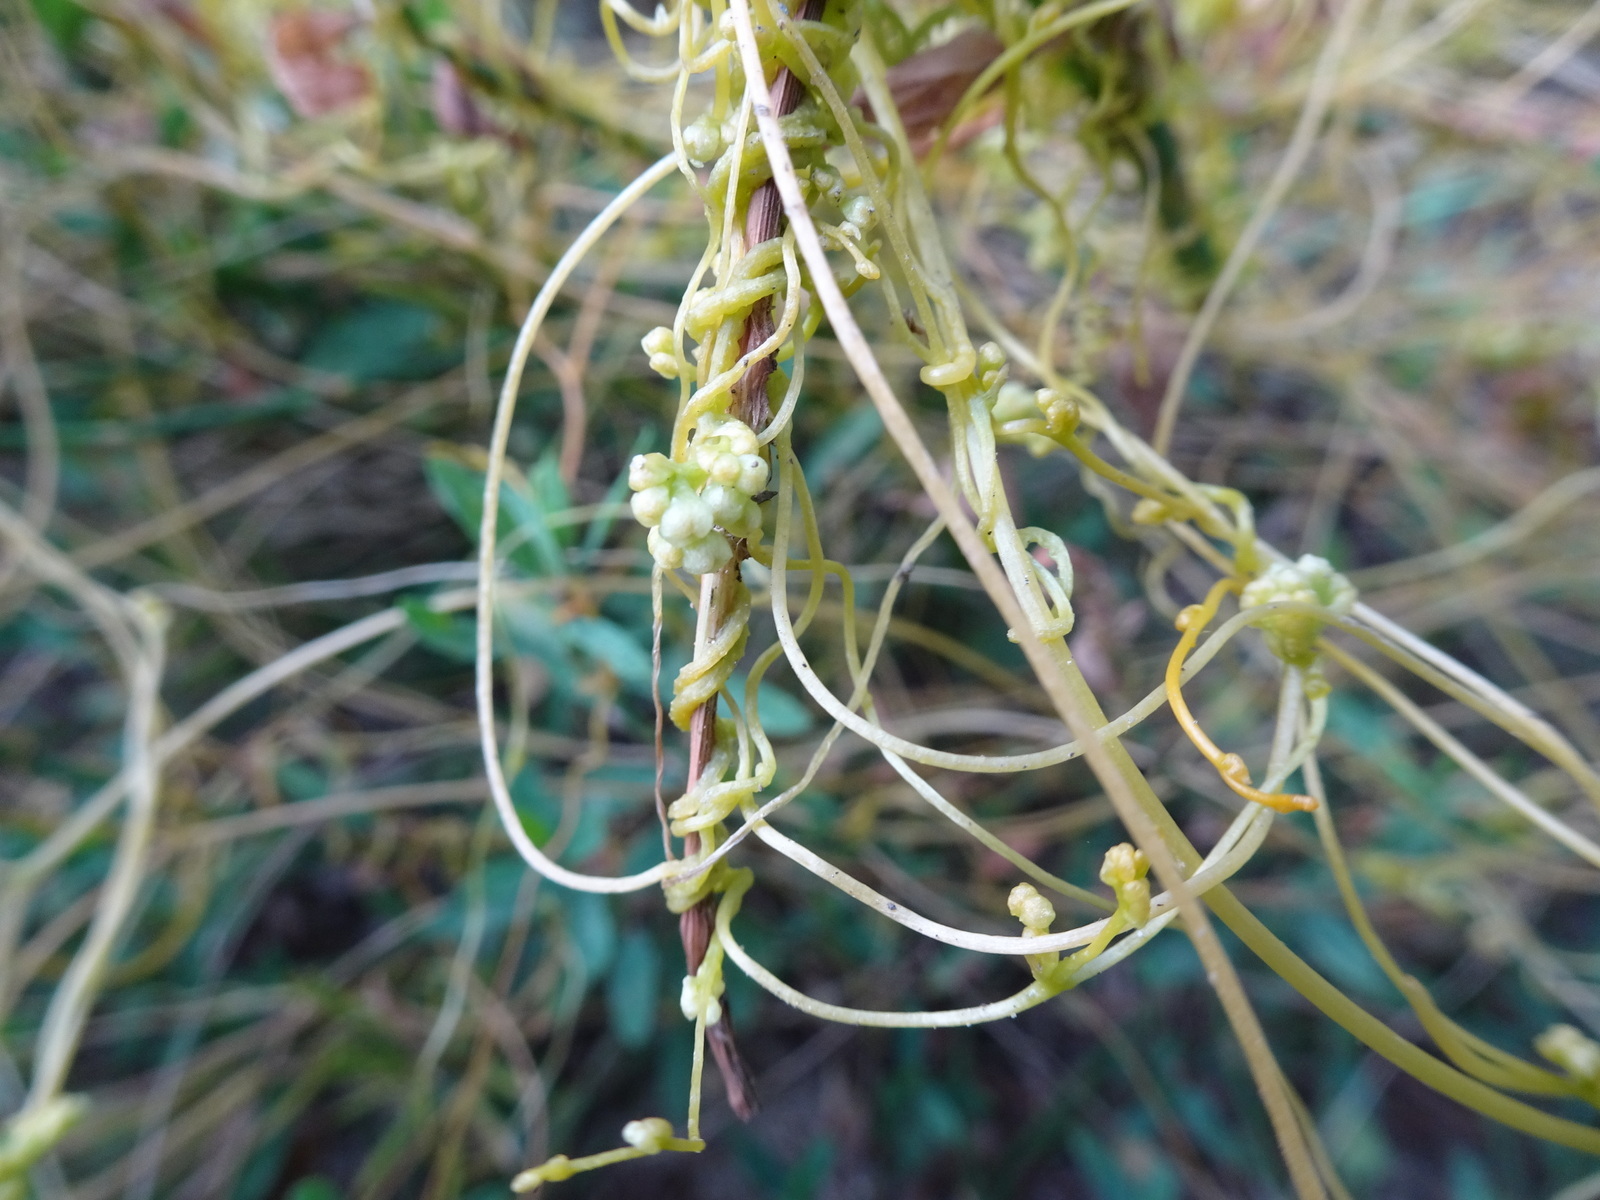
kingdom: Plantae
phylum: Tracheophyta
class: Magnoliopsida
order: Solanales
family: Convolvulaceae
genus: Cuscuta
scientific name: Cuscuta campestris
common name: Yellow dodder
